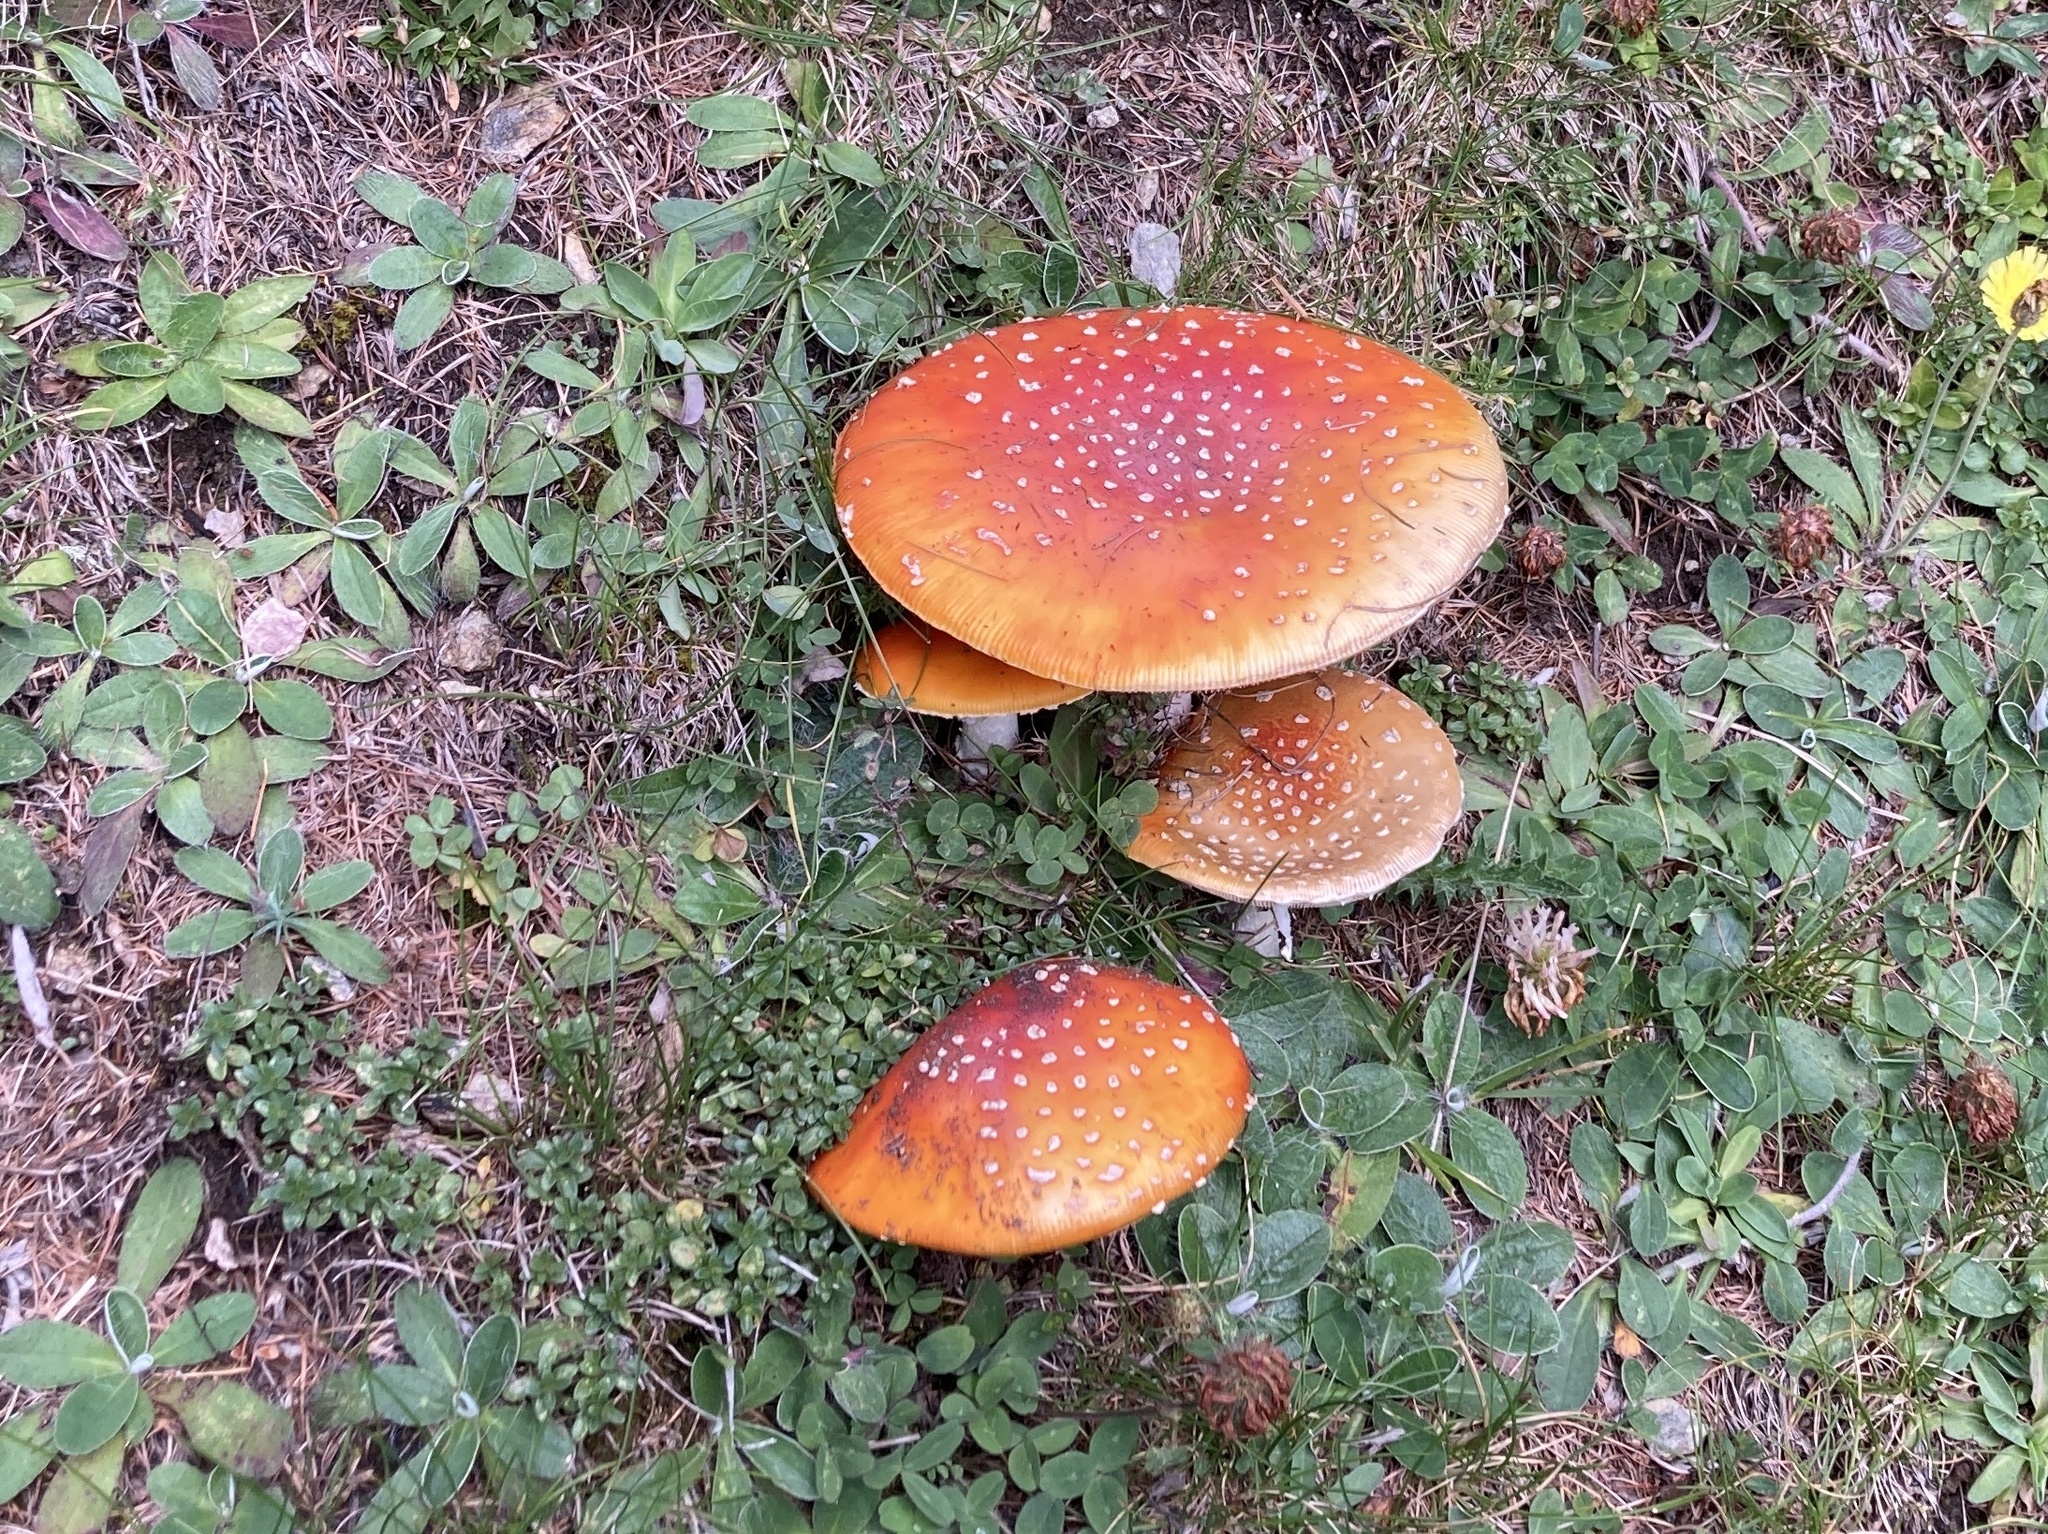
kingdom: Fungi
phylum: Basidiomycota
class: Agaricomycetes
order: Agaricales
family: Amanitaceae
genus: Amanita
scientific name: Amanita muscaria
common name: Fly agaric
